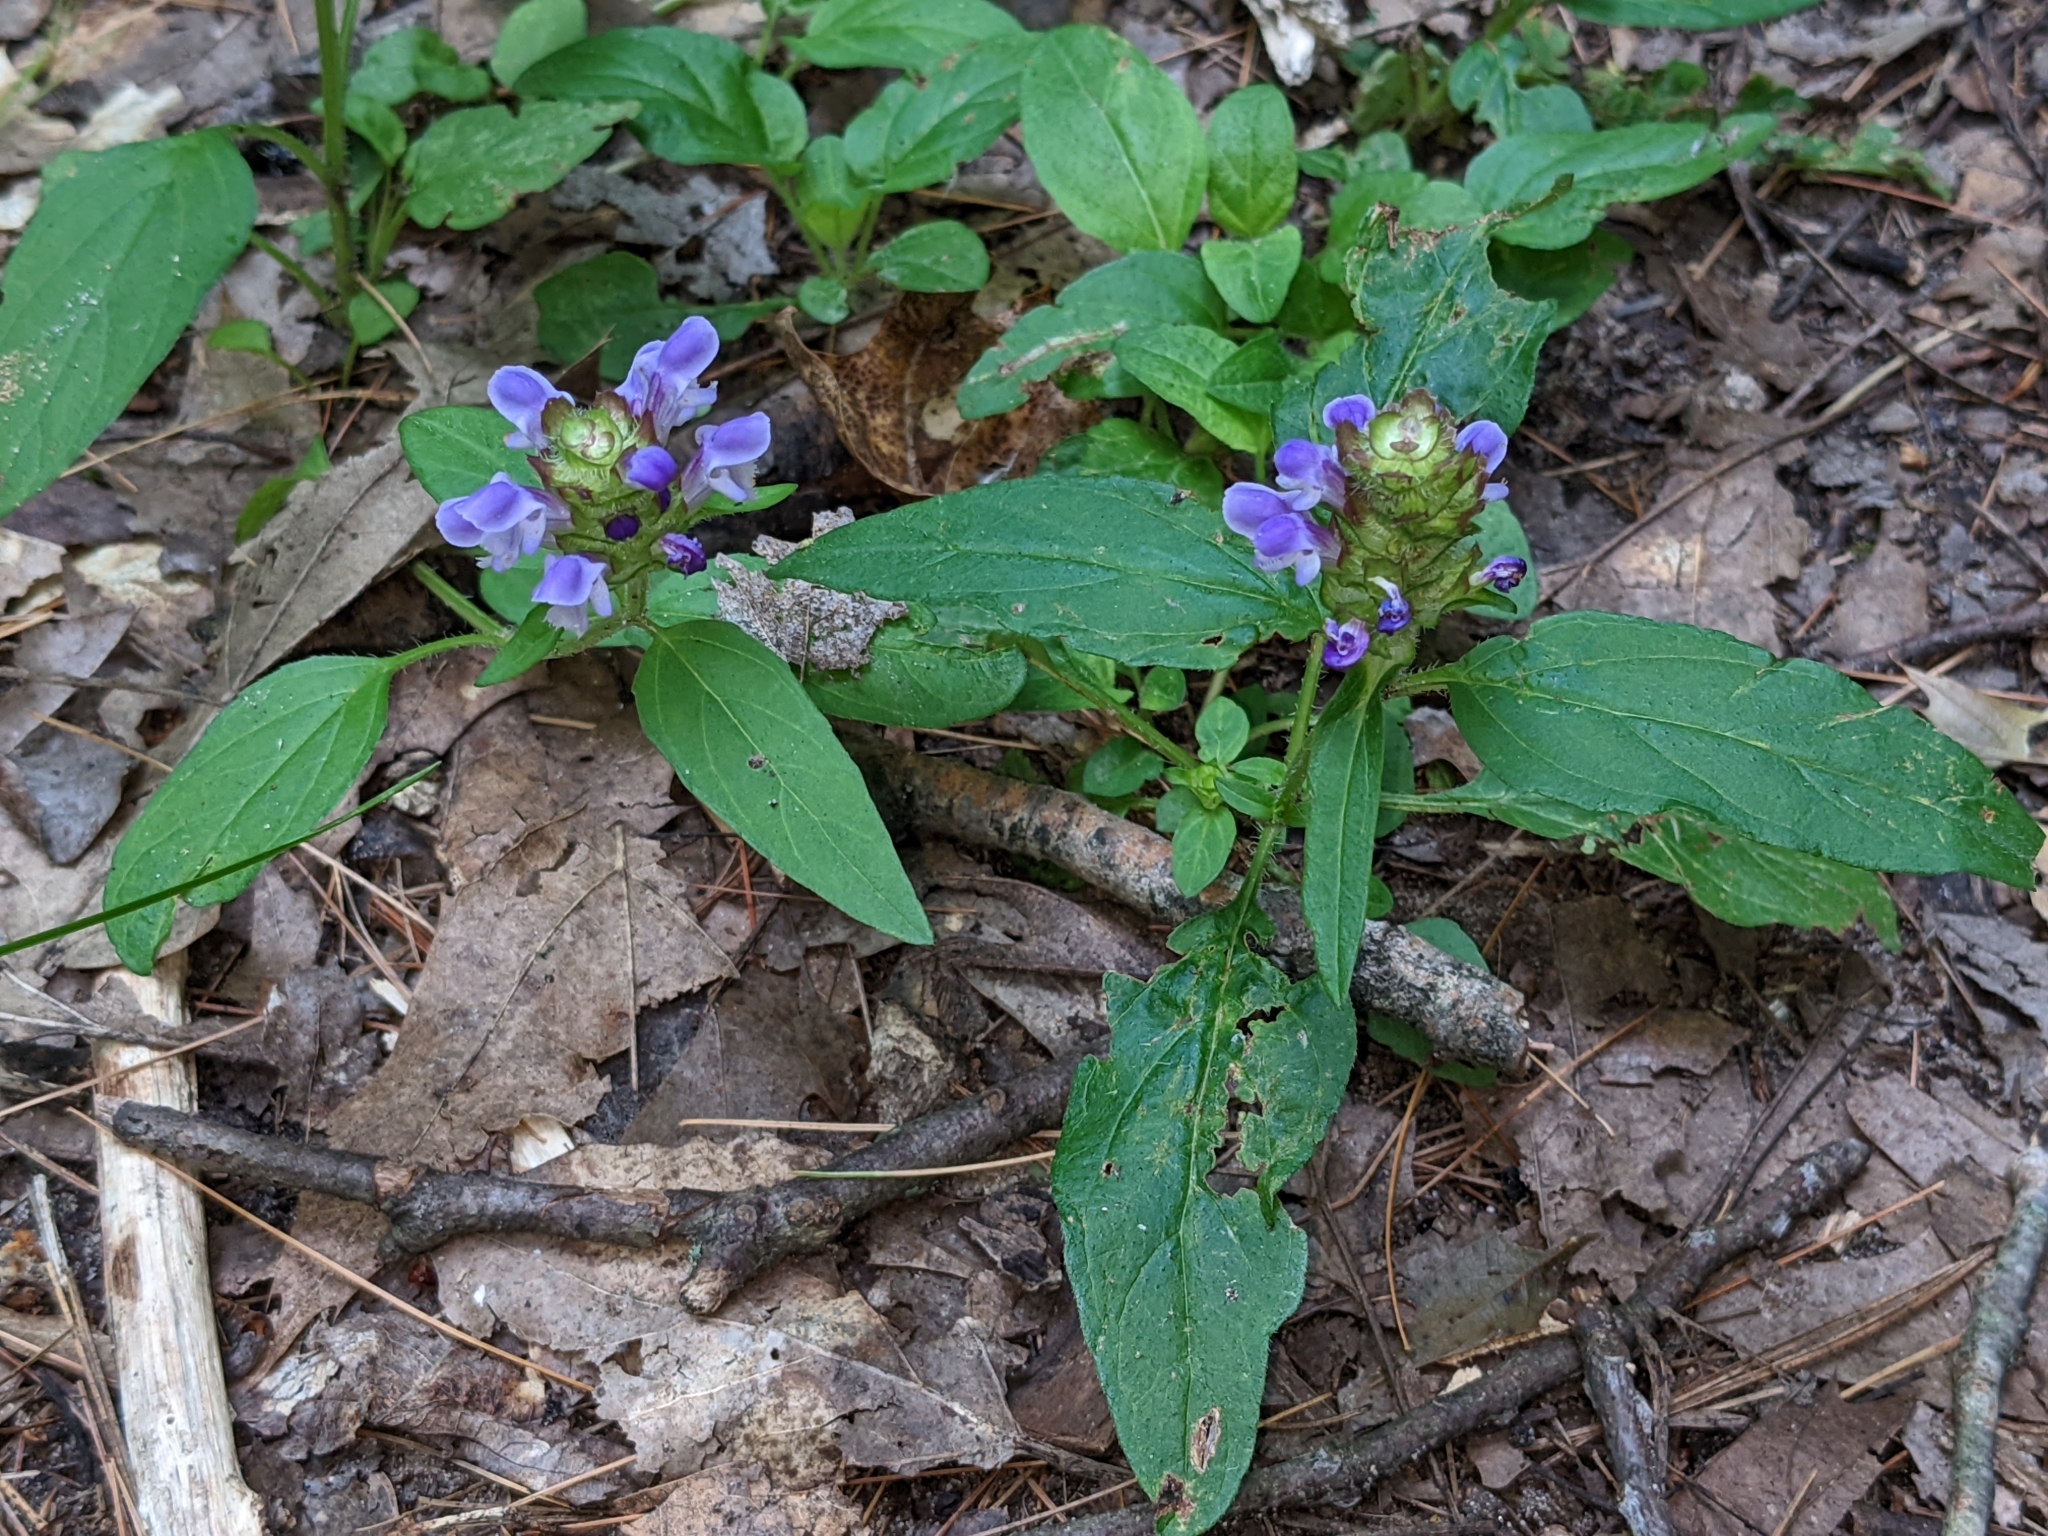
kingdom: Plantae
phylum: Tracheophyta
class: Magnoliopsida
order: Lamiales
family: Lamiaceae
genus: Prunella
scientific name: Prunella vulgaris
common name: Heal-all
